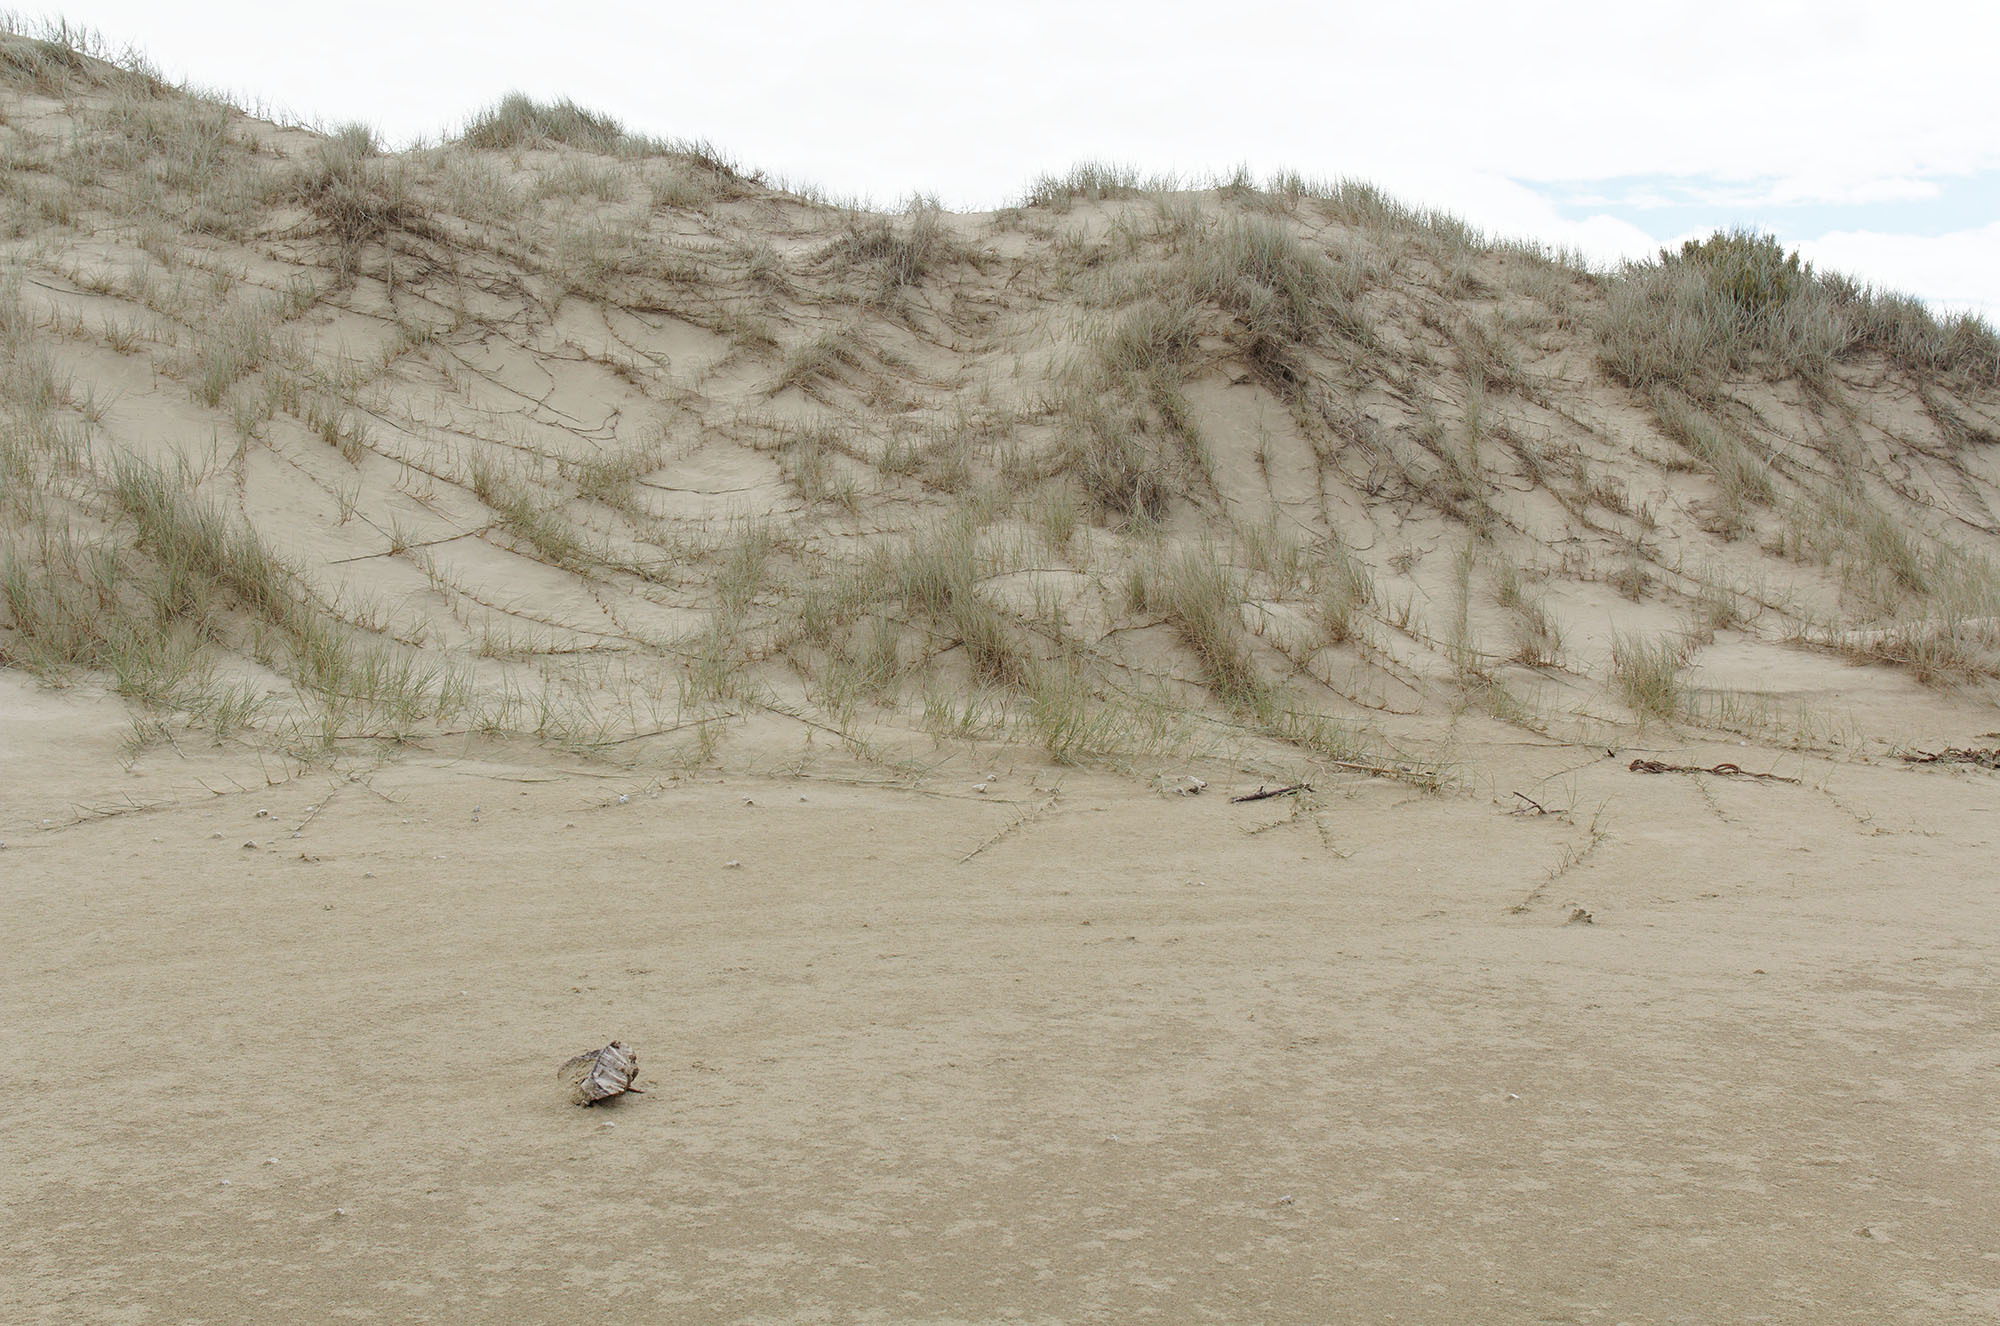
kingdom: Plantae
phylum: Tracheophyta
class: Liliopsida
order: Poales
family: Poaceae
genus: Spinifex
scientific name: Spinifex sericeus
